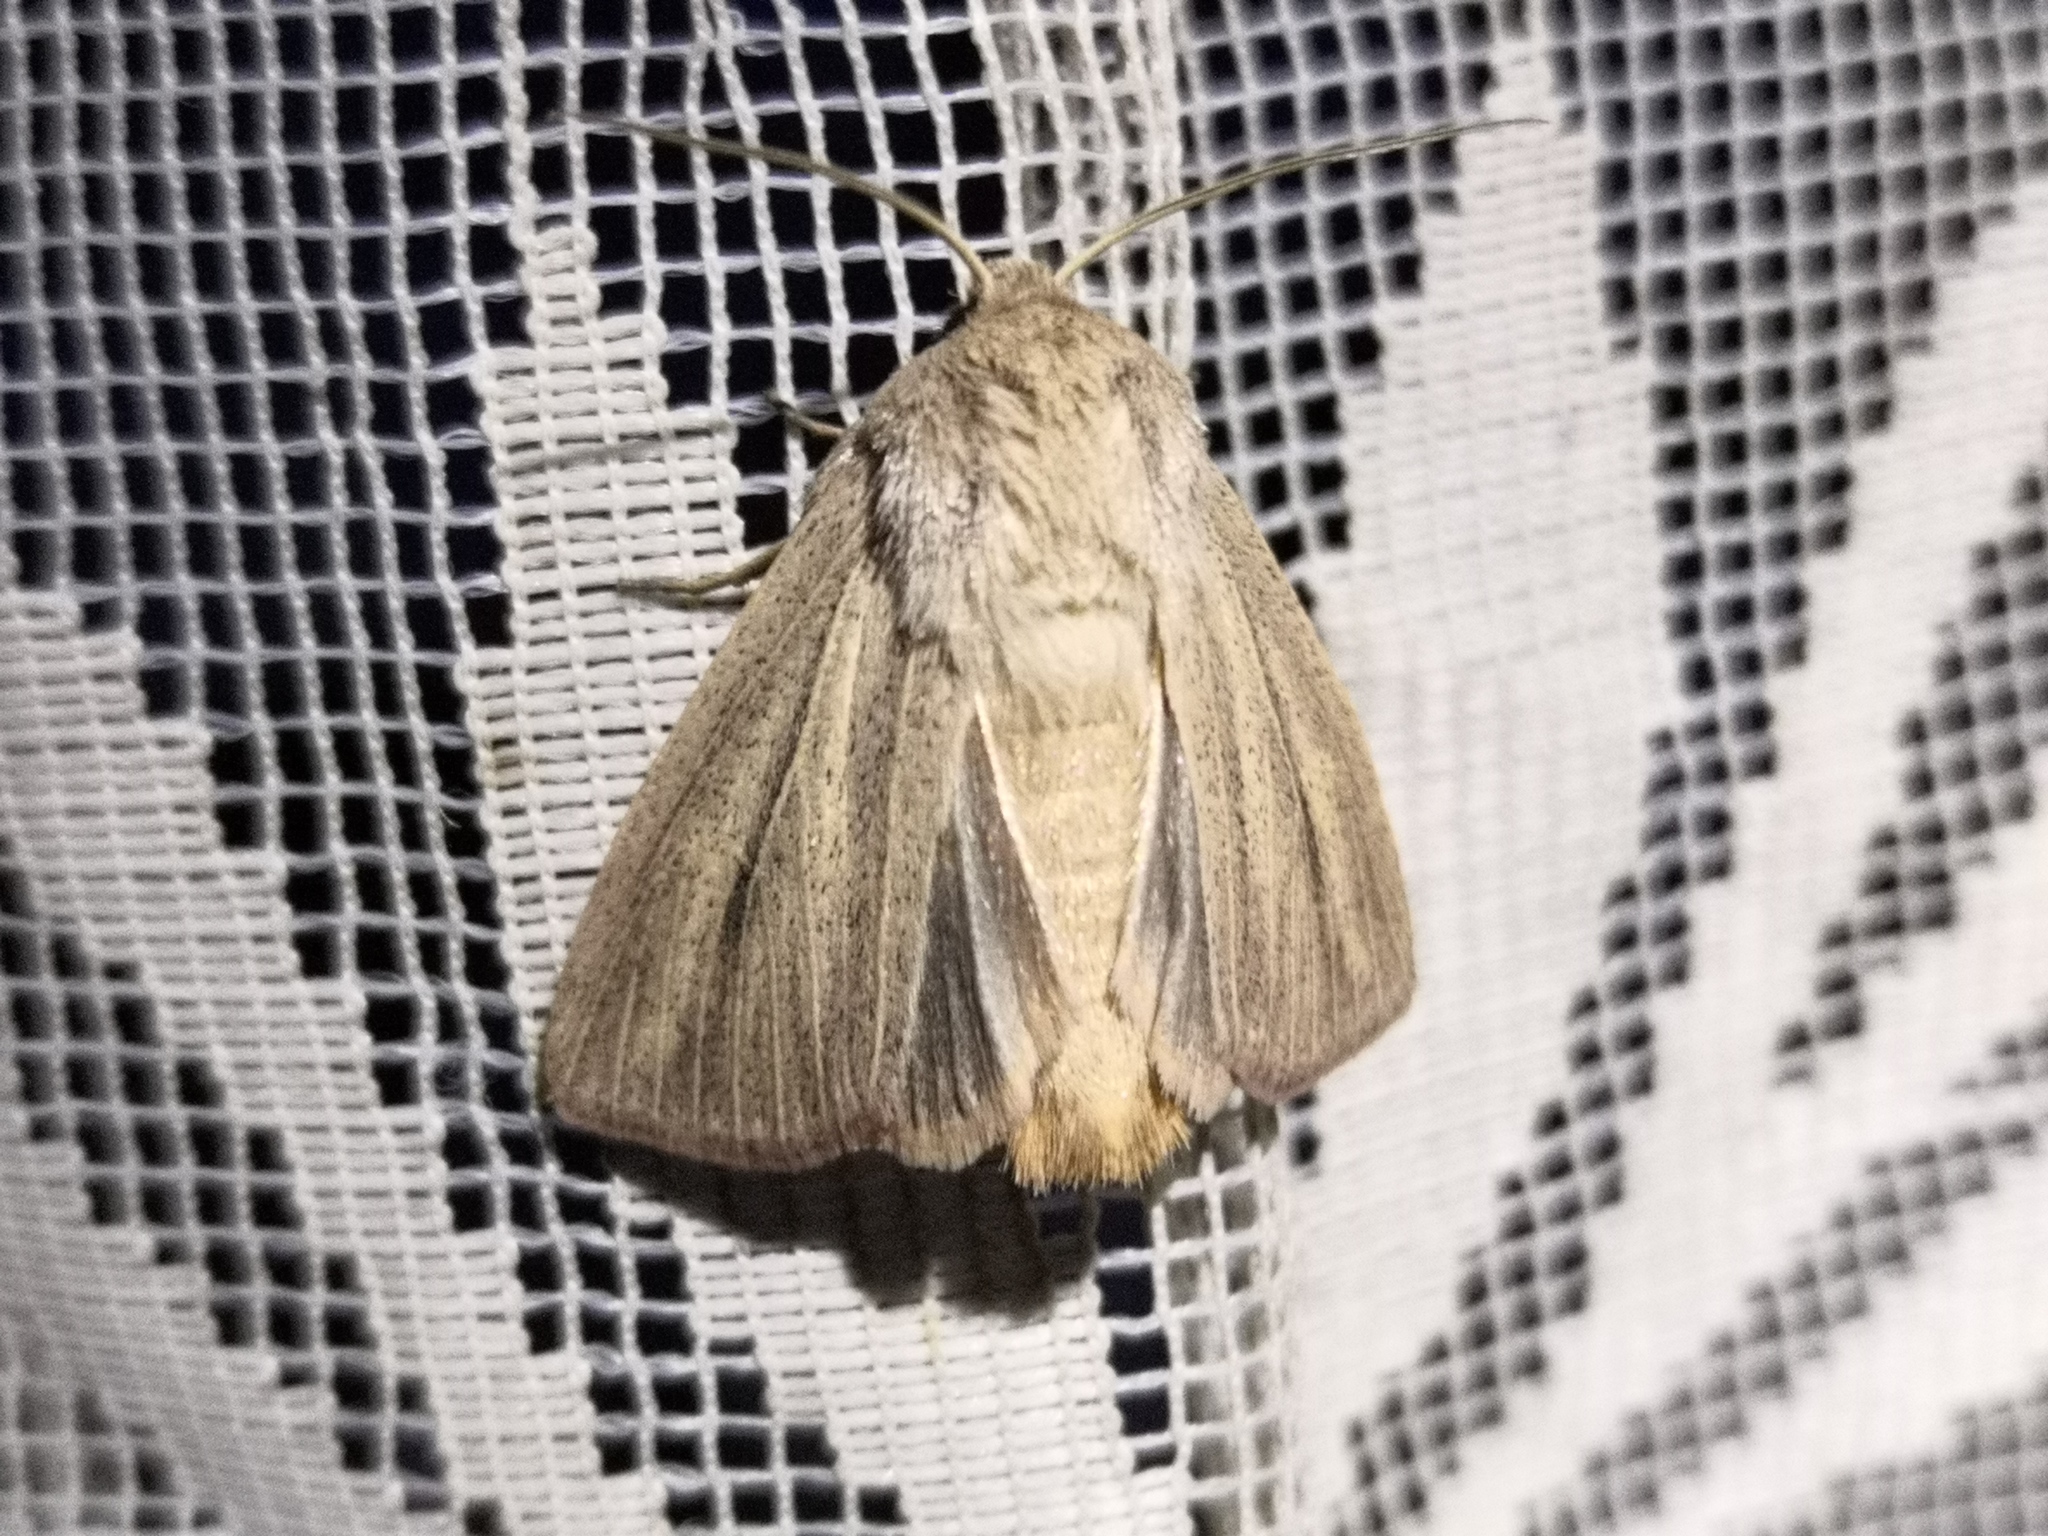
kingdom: Animalia
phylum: Arthropoda
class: Insecta
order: Lepidoptera
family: Noctuidae
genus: Mythimna
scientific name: Mythimna pudorina
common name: Striped wainscot
